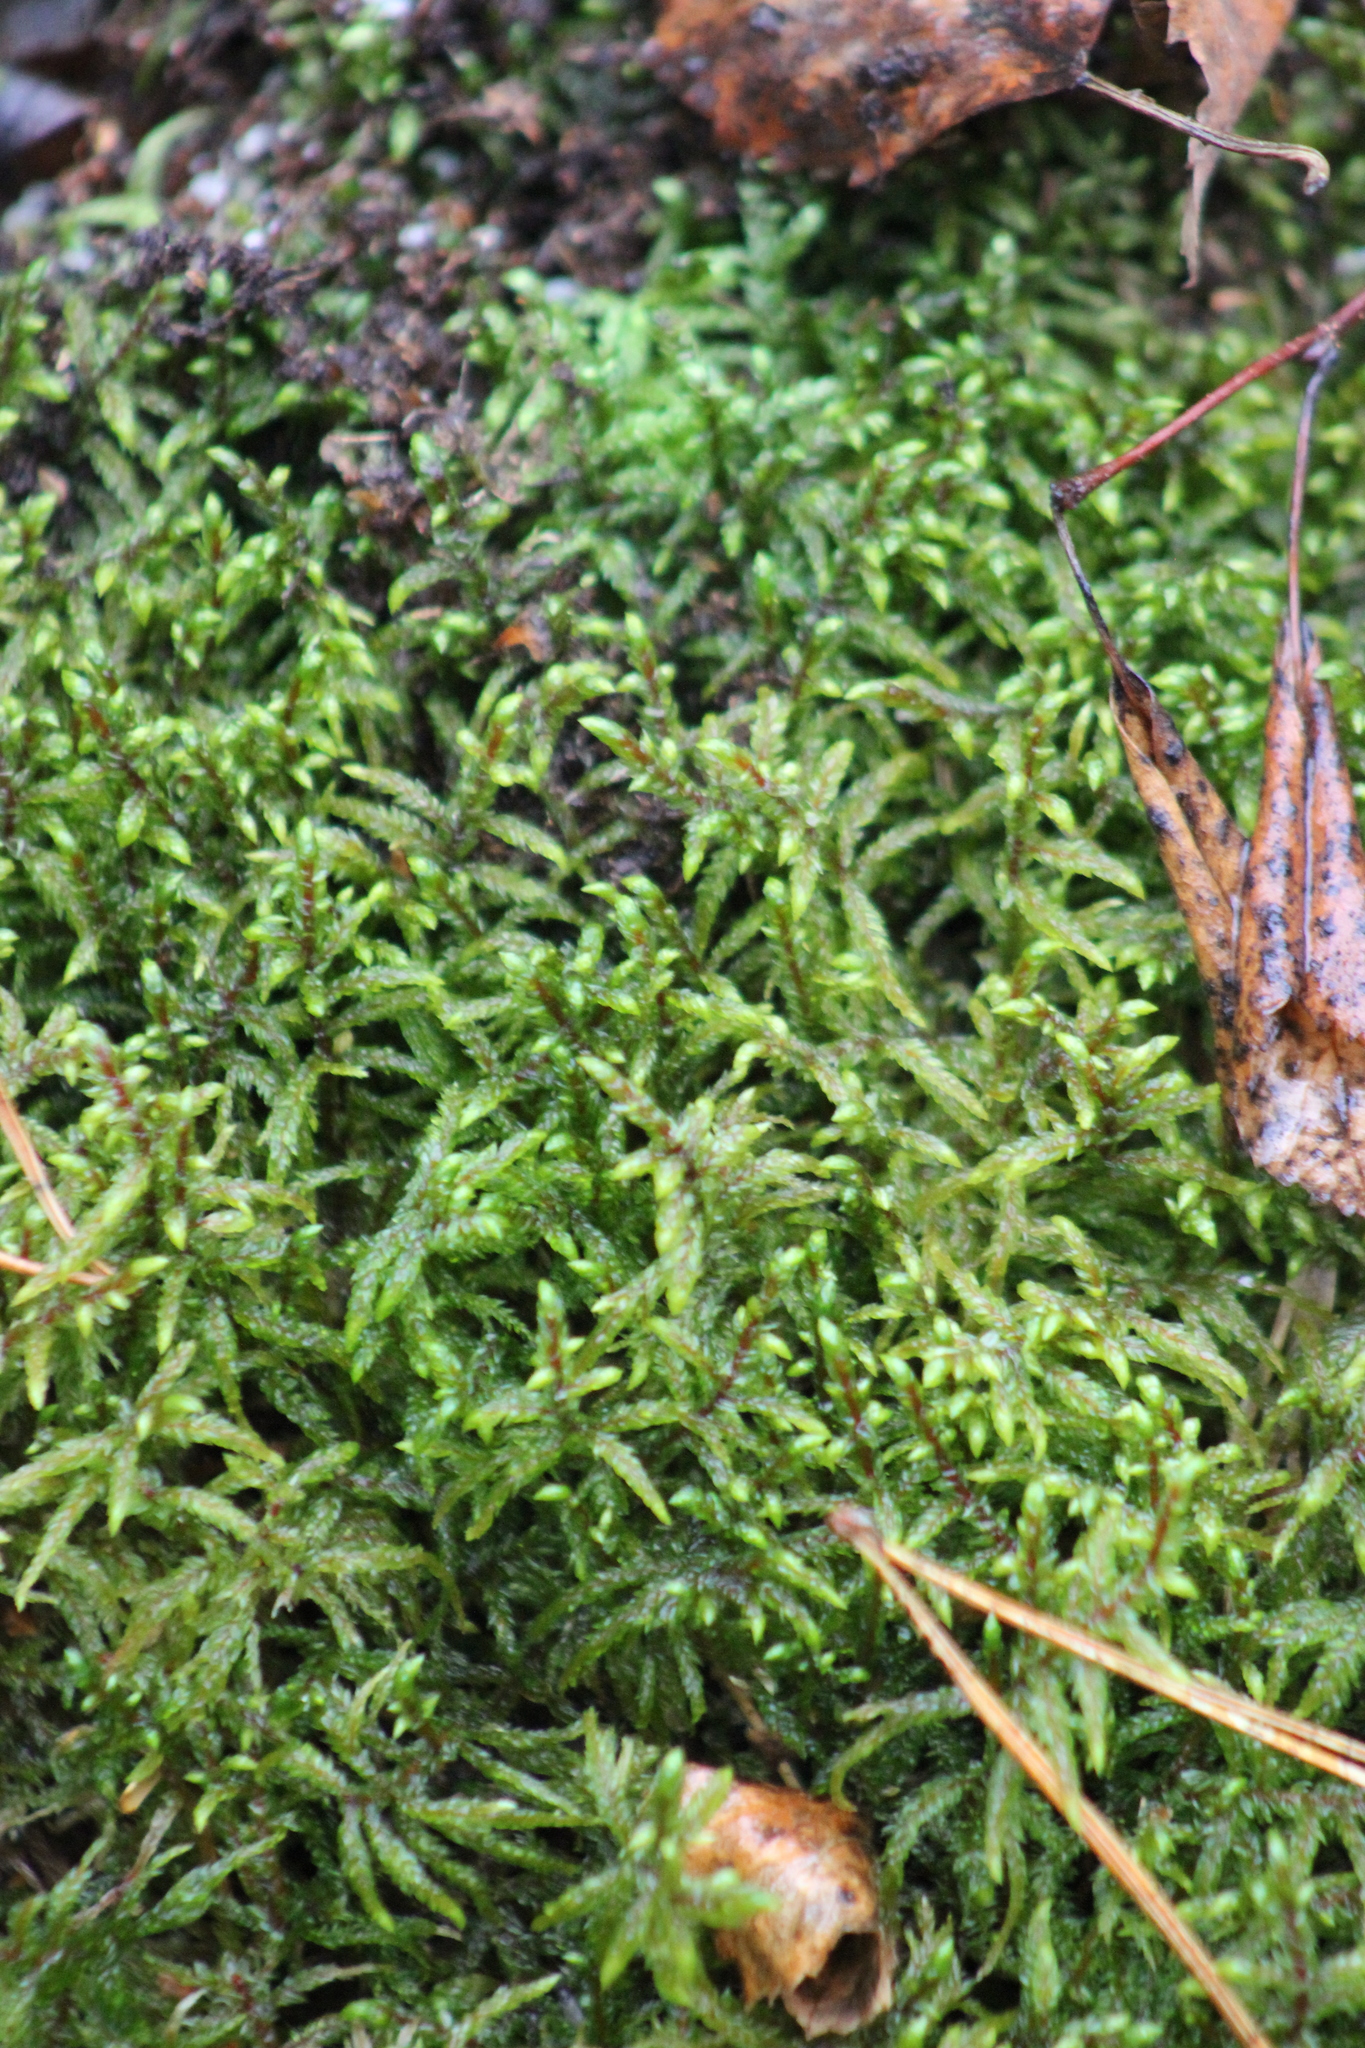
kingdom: Plantae
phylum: Bryophyta
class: Bryopsida
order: Hypnales
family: Hylocomiaceae
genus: Pleurozium
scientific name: Pleurozium schreberi
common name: Red-stemmed feather moss
